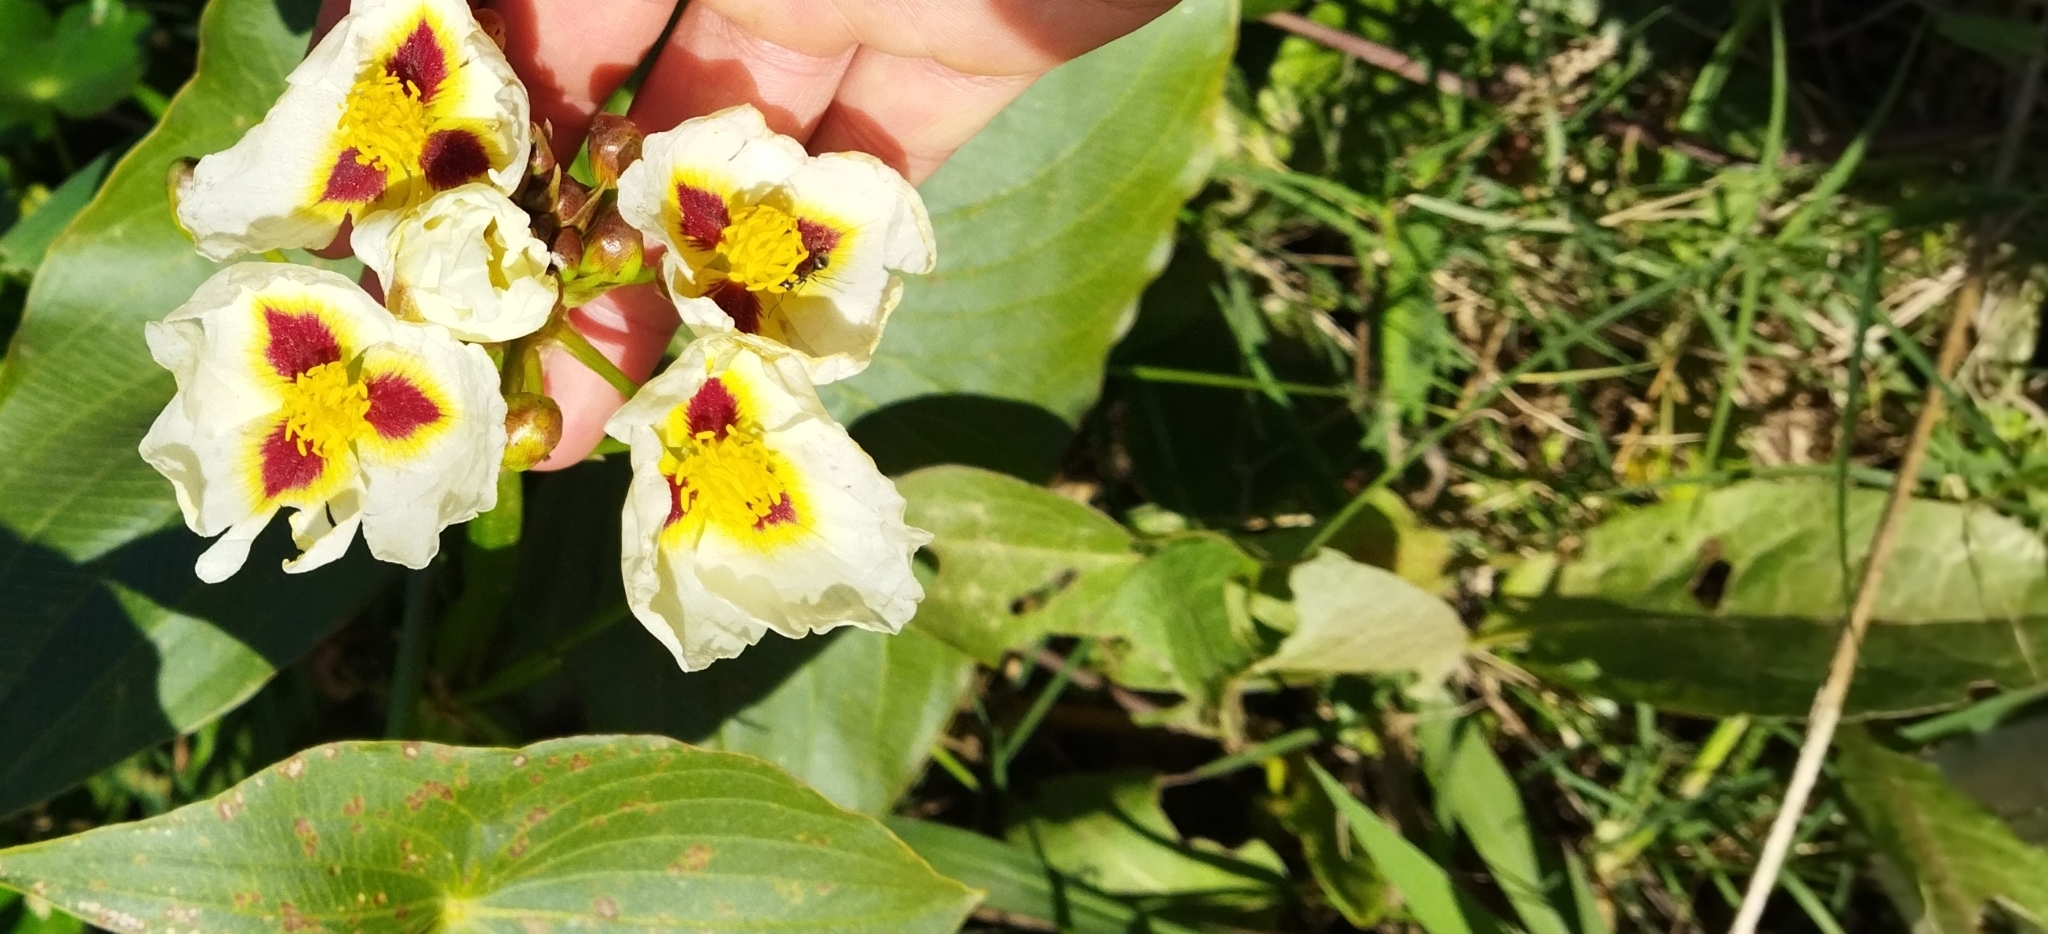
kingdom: Plantae
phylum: Tracheophyta
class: Liliopsida
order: Alismatales
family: Alismataceae
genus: Sagittaria
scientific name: Sagittaria montevidensis
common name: Giant arrowhead
